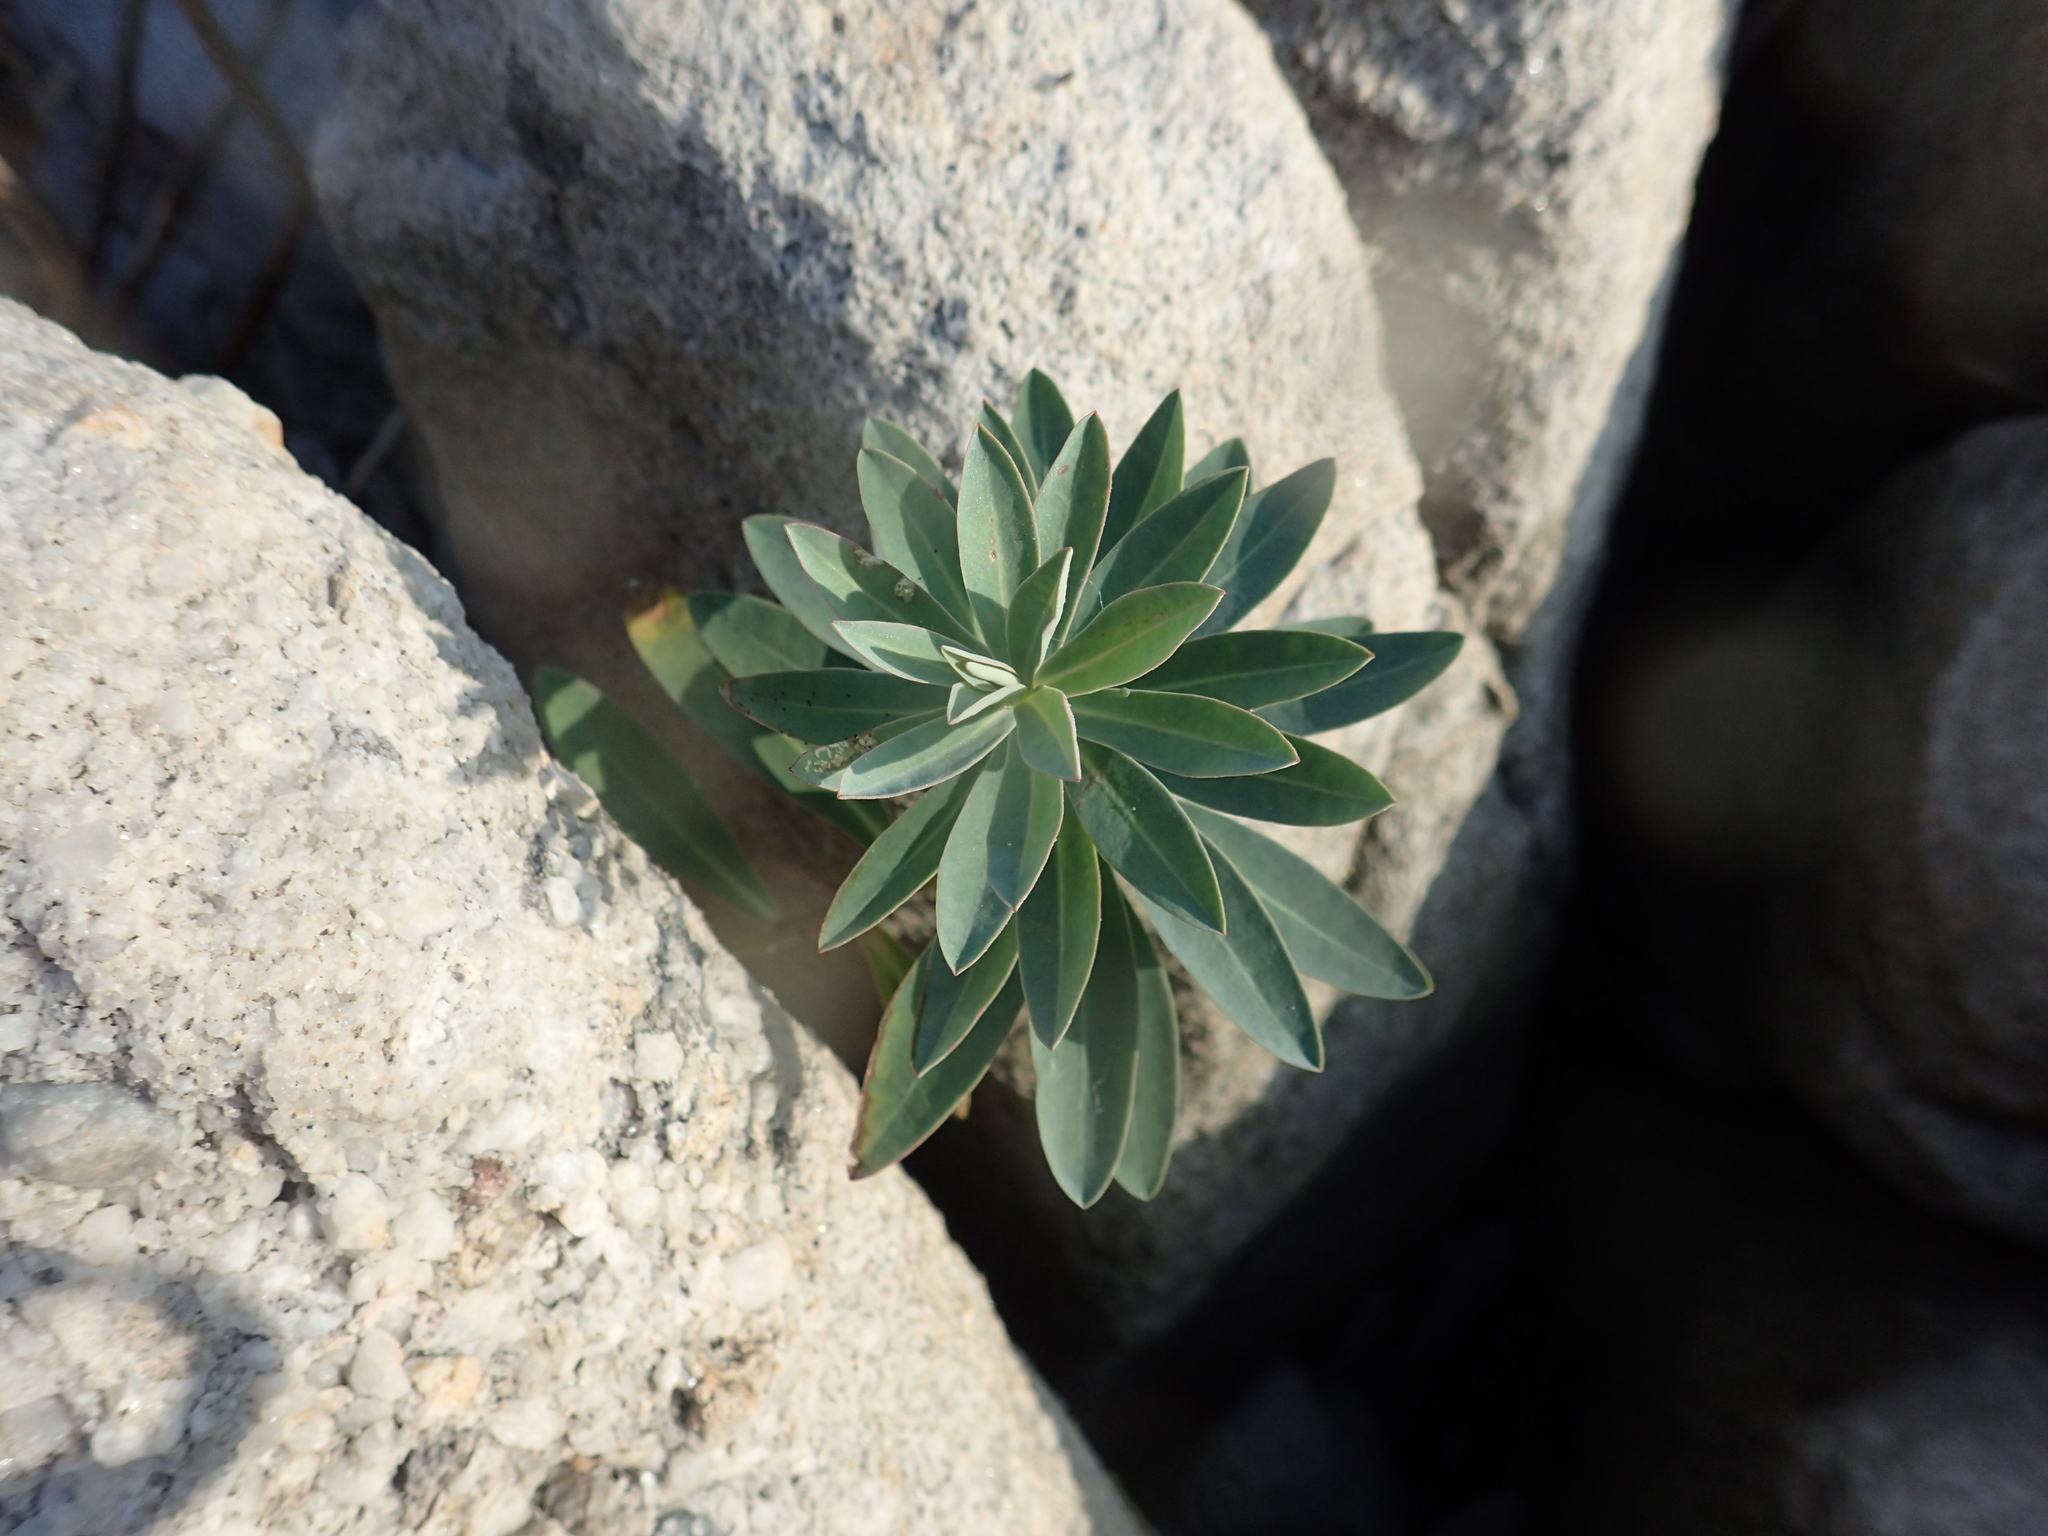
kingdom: Plantae
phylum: Tracheophyta
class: Magnoliopsida
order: Malpighiales
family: Euphorbiaceae
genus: Euphorbia
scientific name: Euphorbia jolkinii
